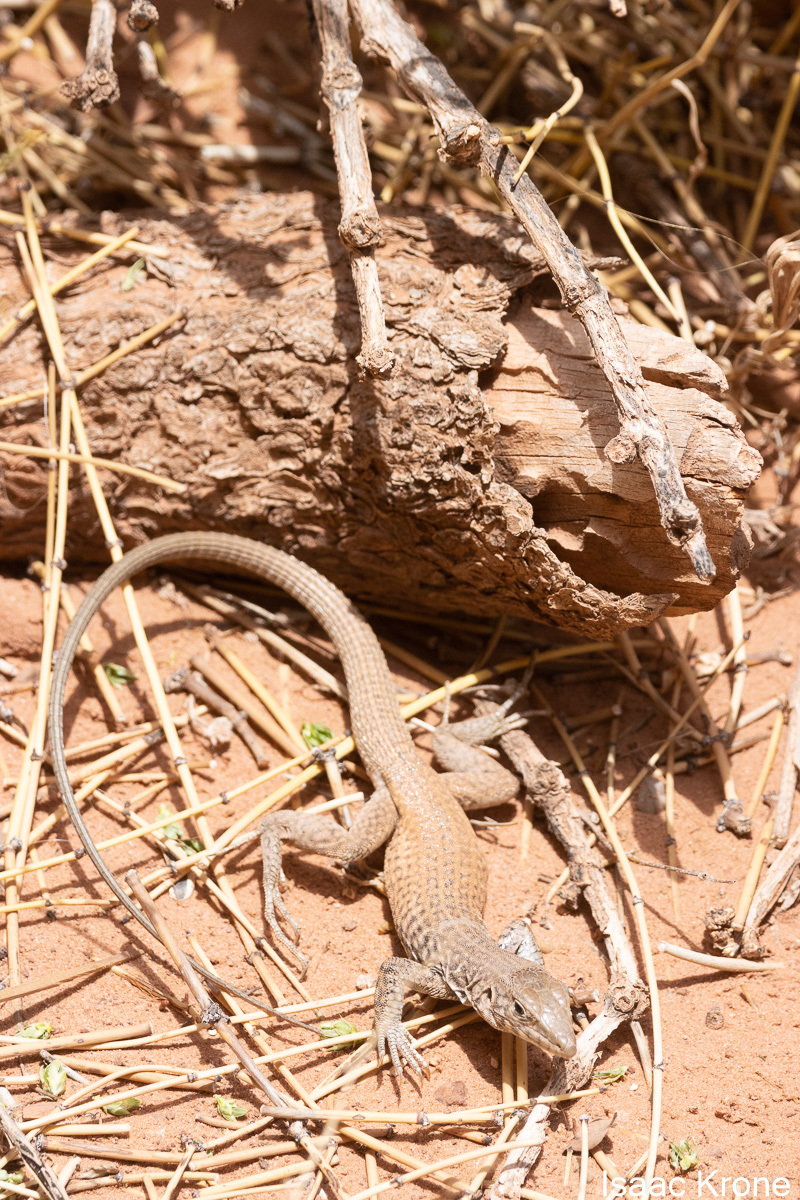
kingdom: Animalia
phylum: Chordata
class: Squamata
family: Teiidae
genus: Aspidoscelis
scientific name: Aspidoscelis tigris
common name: Tiger whiptail
